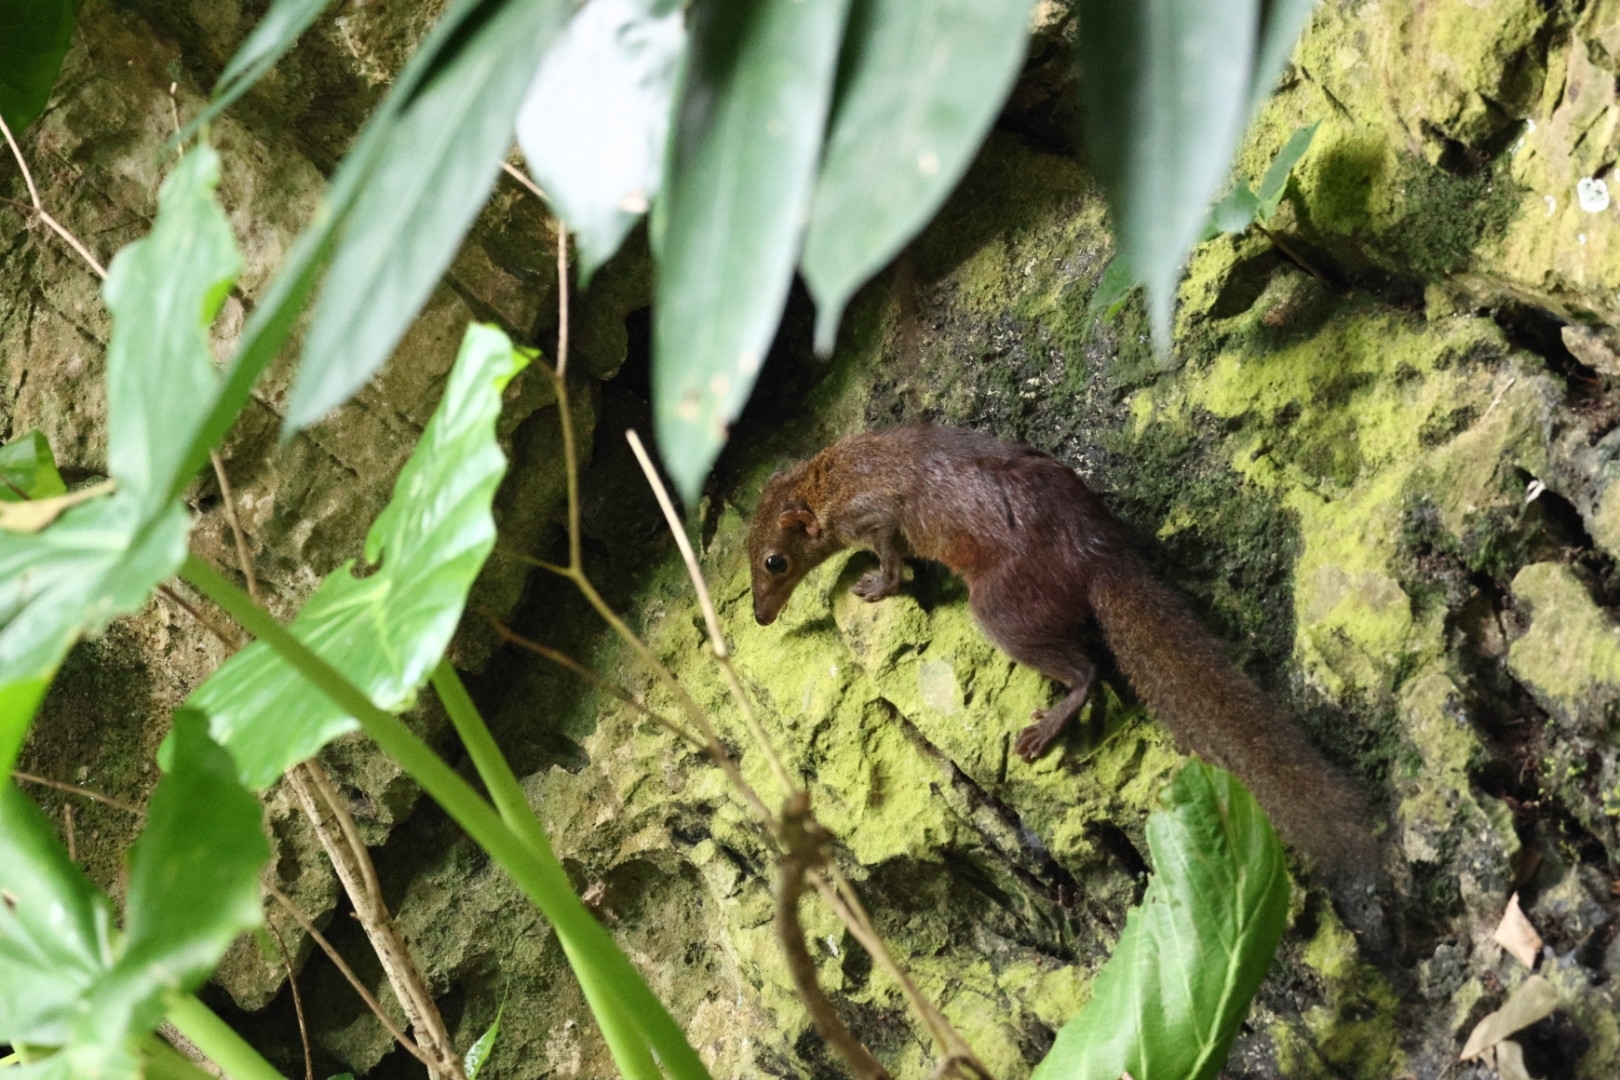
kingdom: Animalia
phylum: Chordata
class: Mammalia
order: Scandentia
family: Tupaiidae
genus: Tupaia
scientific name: Tupaia glis
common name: Common treeshrew
